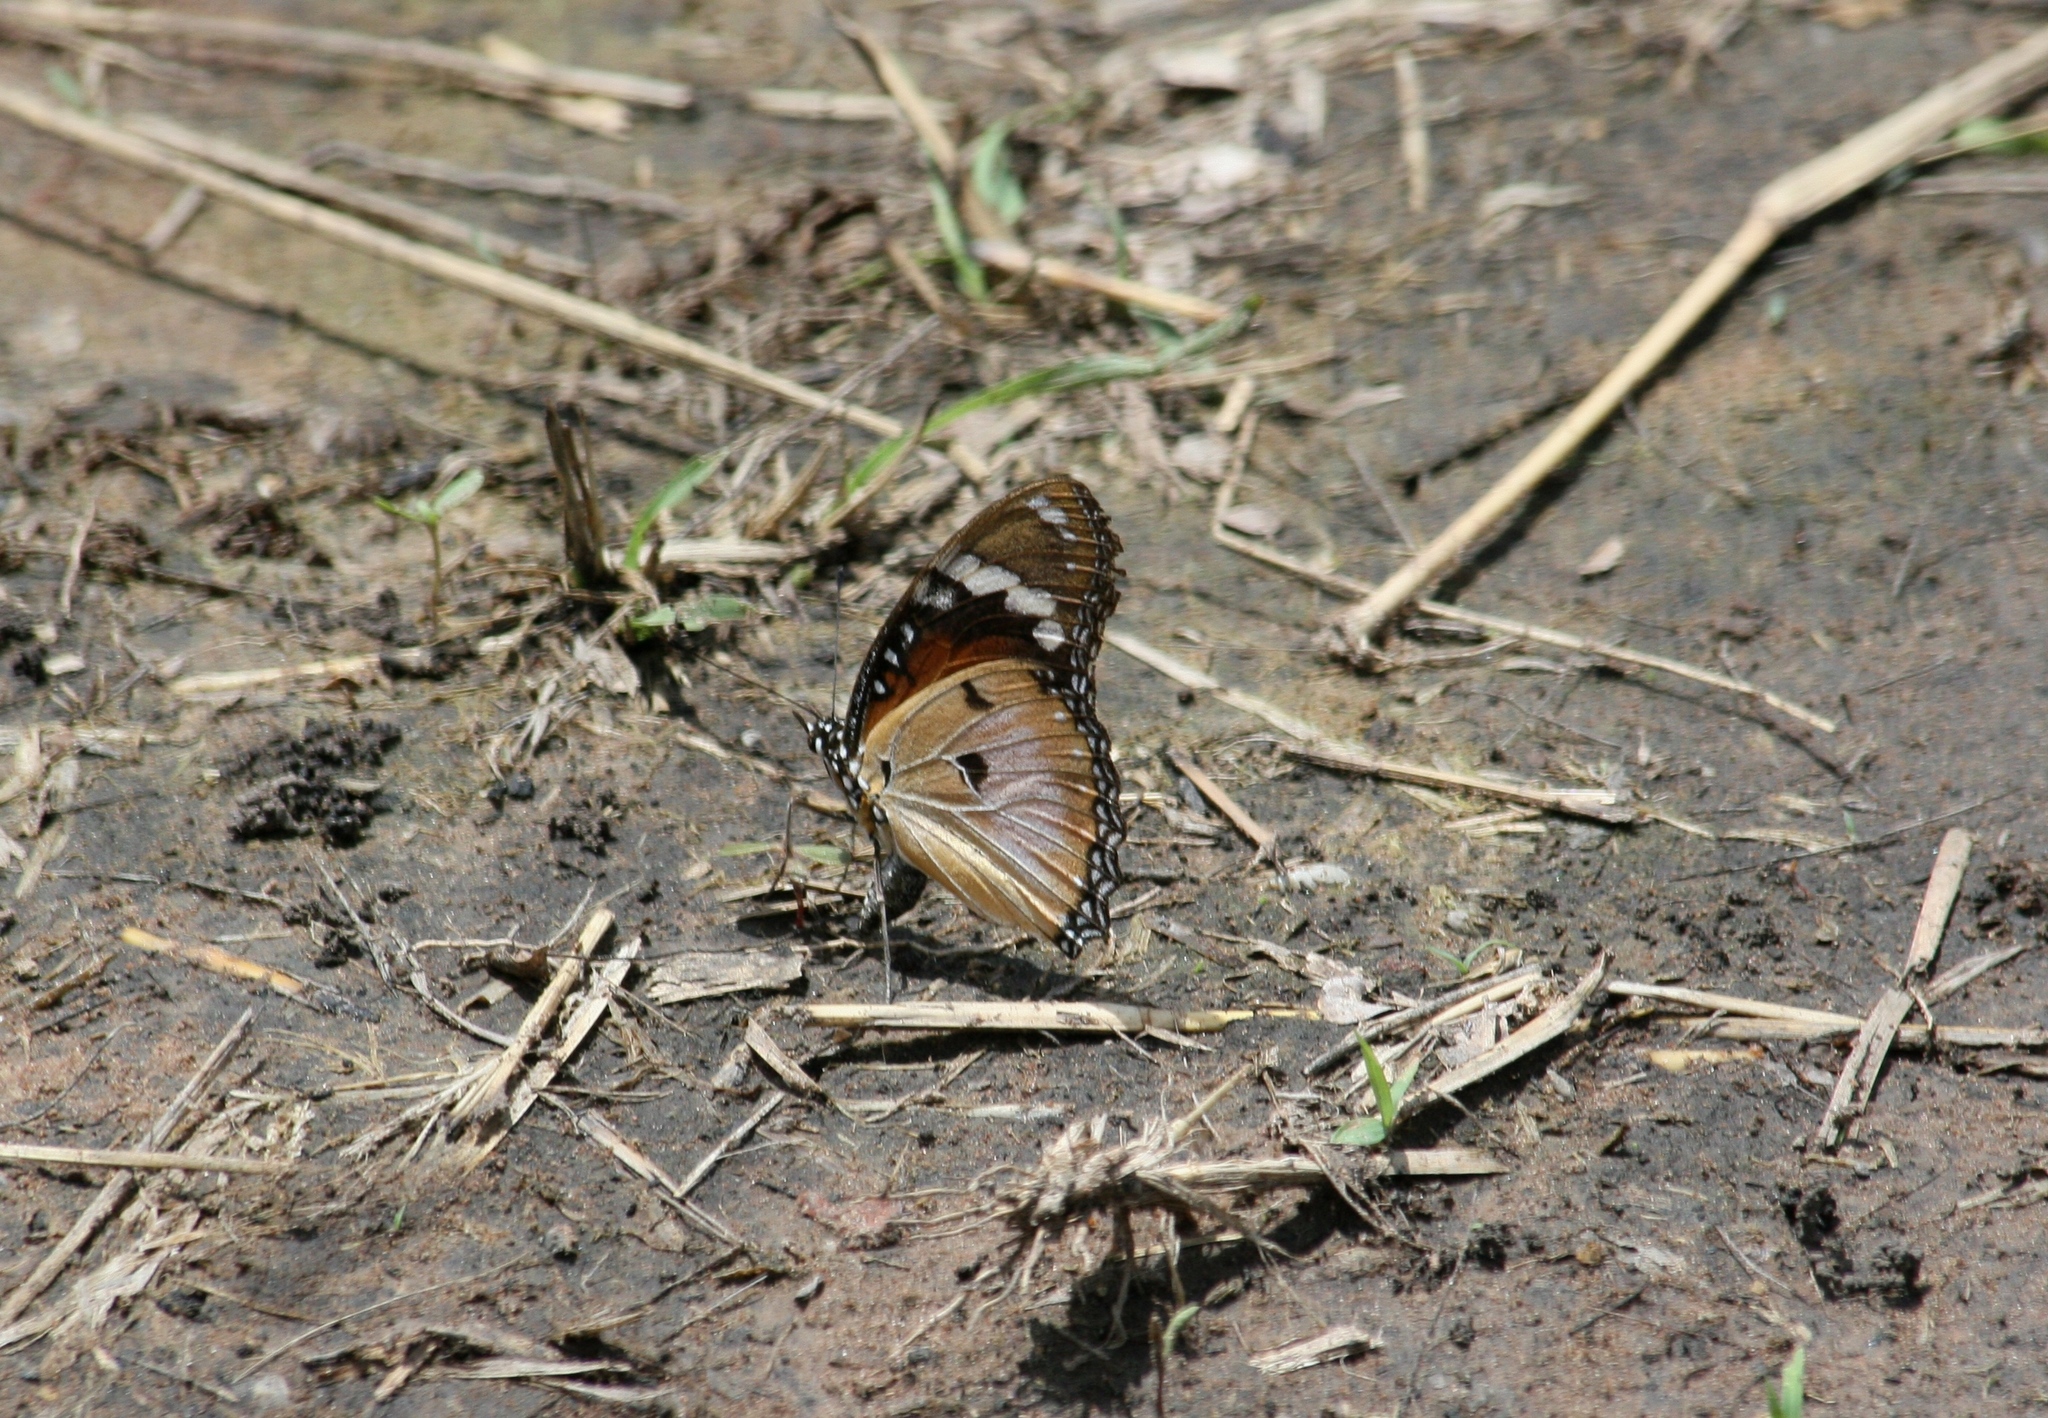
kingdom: Animalia
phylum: Arthropoda
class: Insecta
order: Lepidoptera
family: Nymphalidae
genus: Hypolimnas
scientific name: Hypolimnas misippus
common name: False plain tiger
